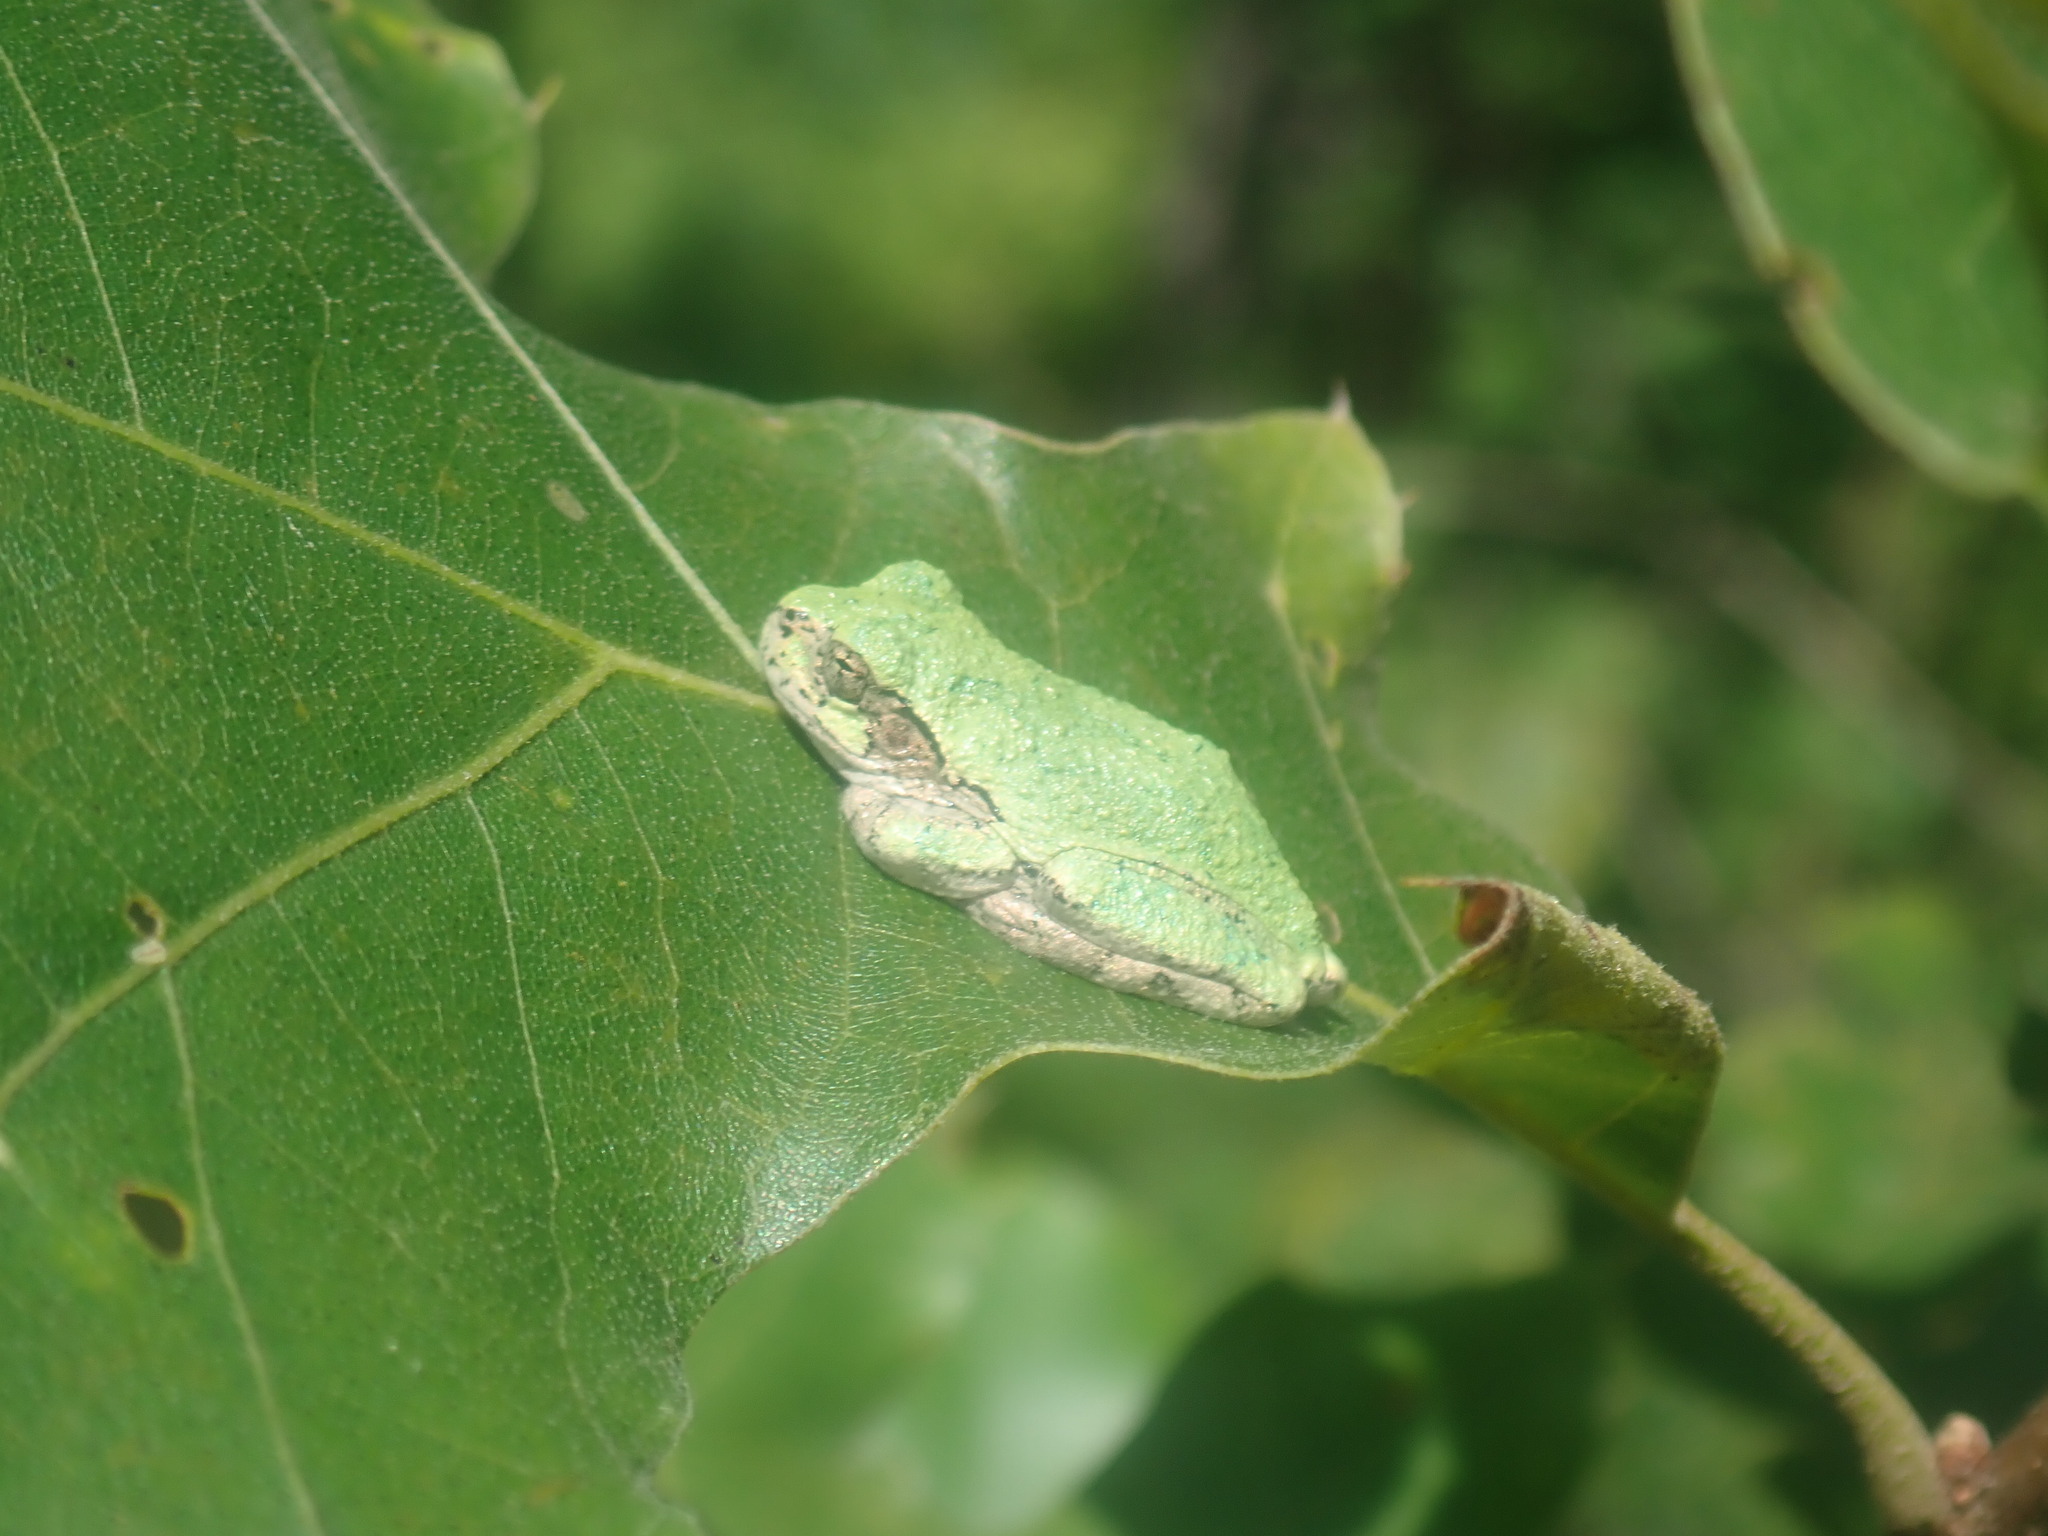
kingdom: Animalia
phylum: Chordata
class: Amphibia
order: Anura
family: Hylidae
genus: Dryophytes
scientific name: Dryophytes versicolor
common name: Gray treefrog
